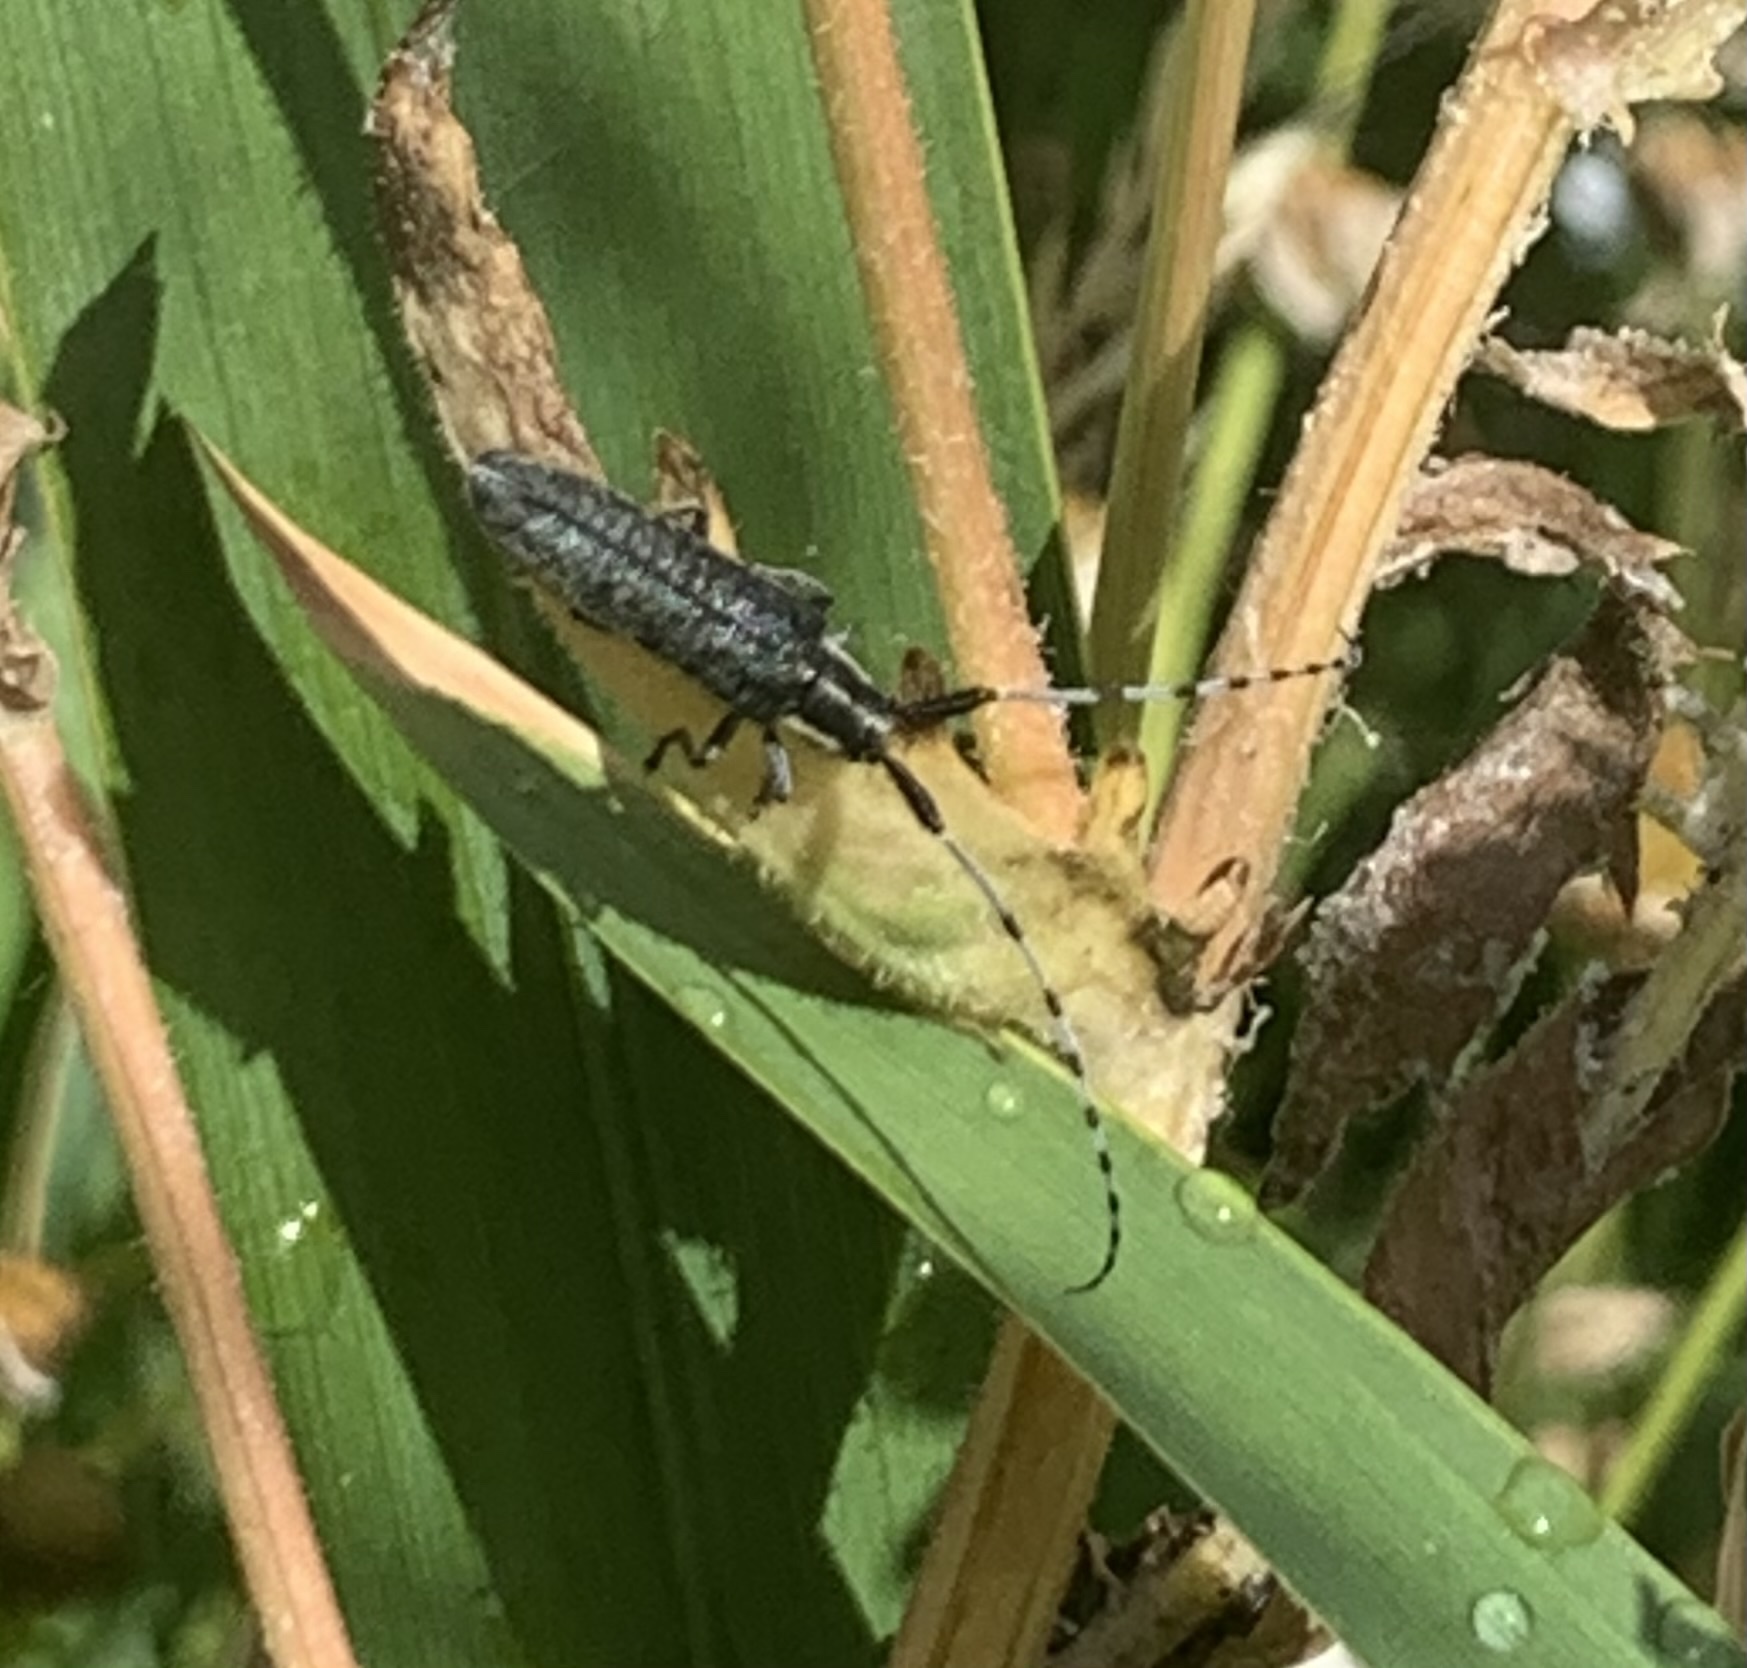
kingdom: Animalia
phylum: Arthropoda
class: Insecta
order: Coleoptera
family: Cerambycidae
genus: Agapanthia
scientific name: Agapanthia villosoviridescens
